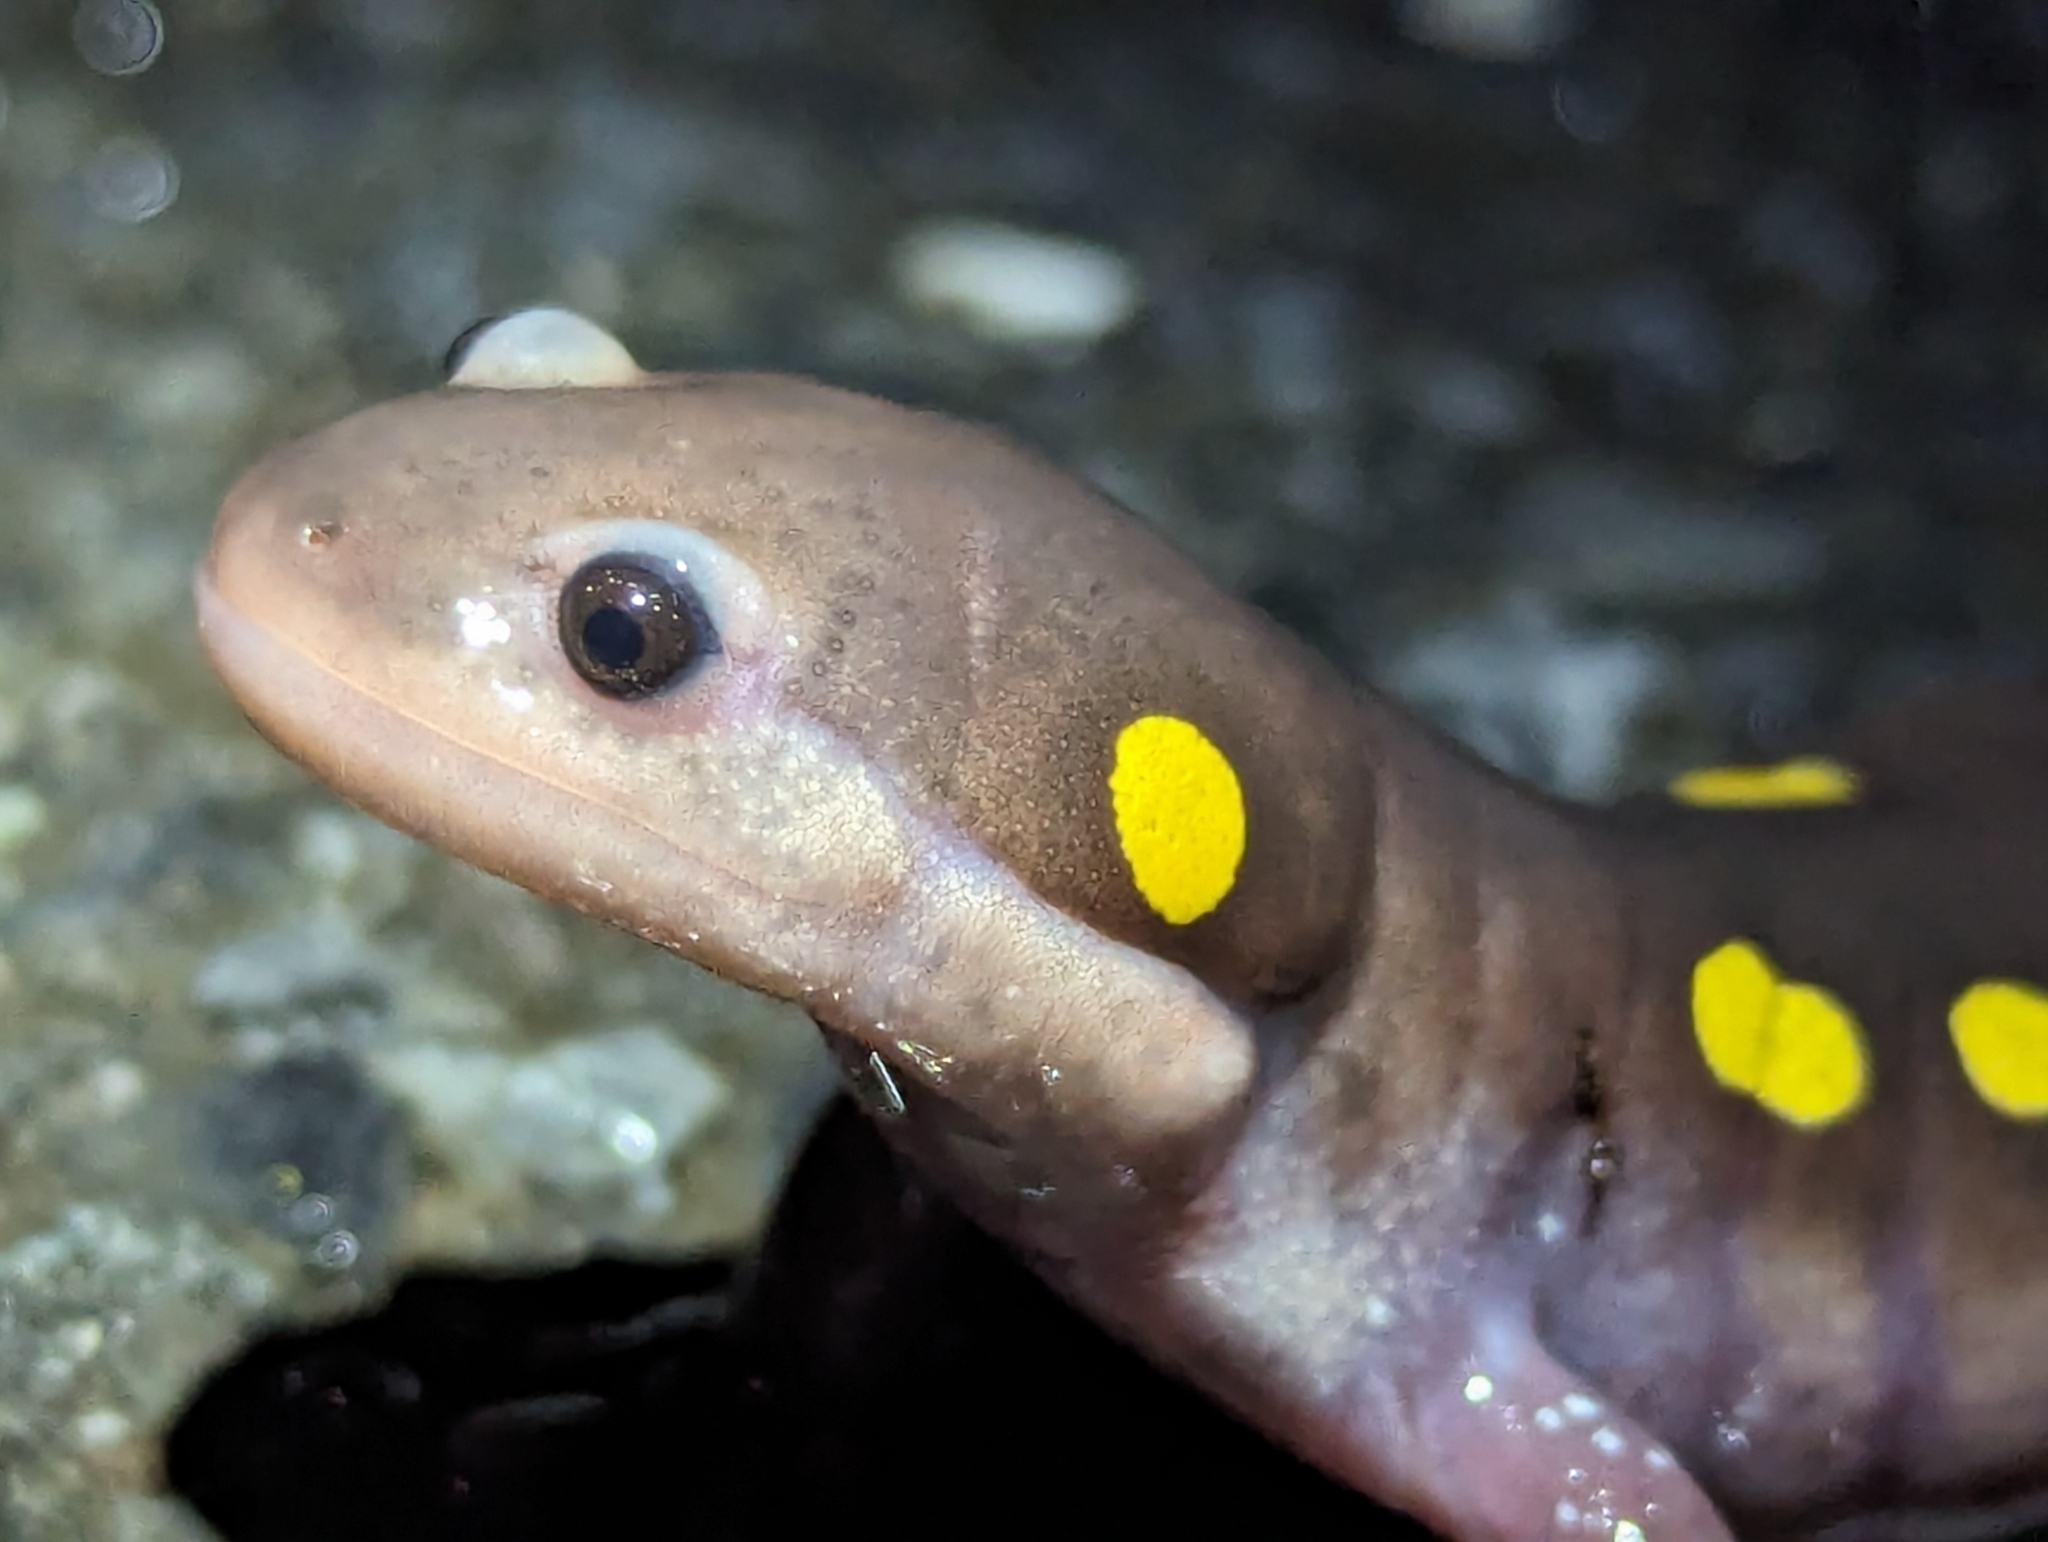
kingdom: Animalia
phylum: Chordata
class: Amphibia
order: Caudata
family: Ambystomatidae
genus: Ambystoma
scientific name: Ambystoma maculatum
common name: Spotted salamander
